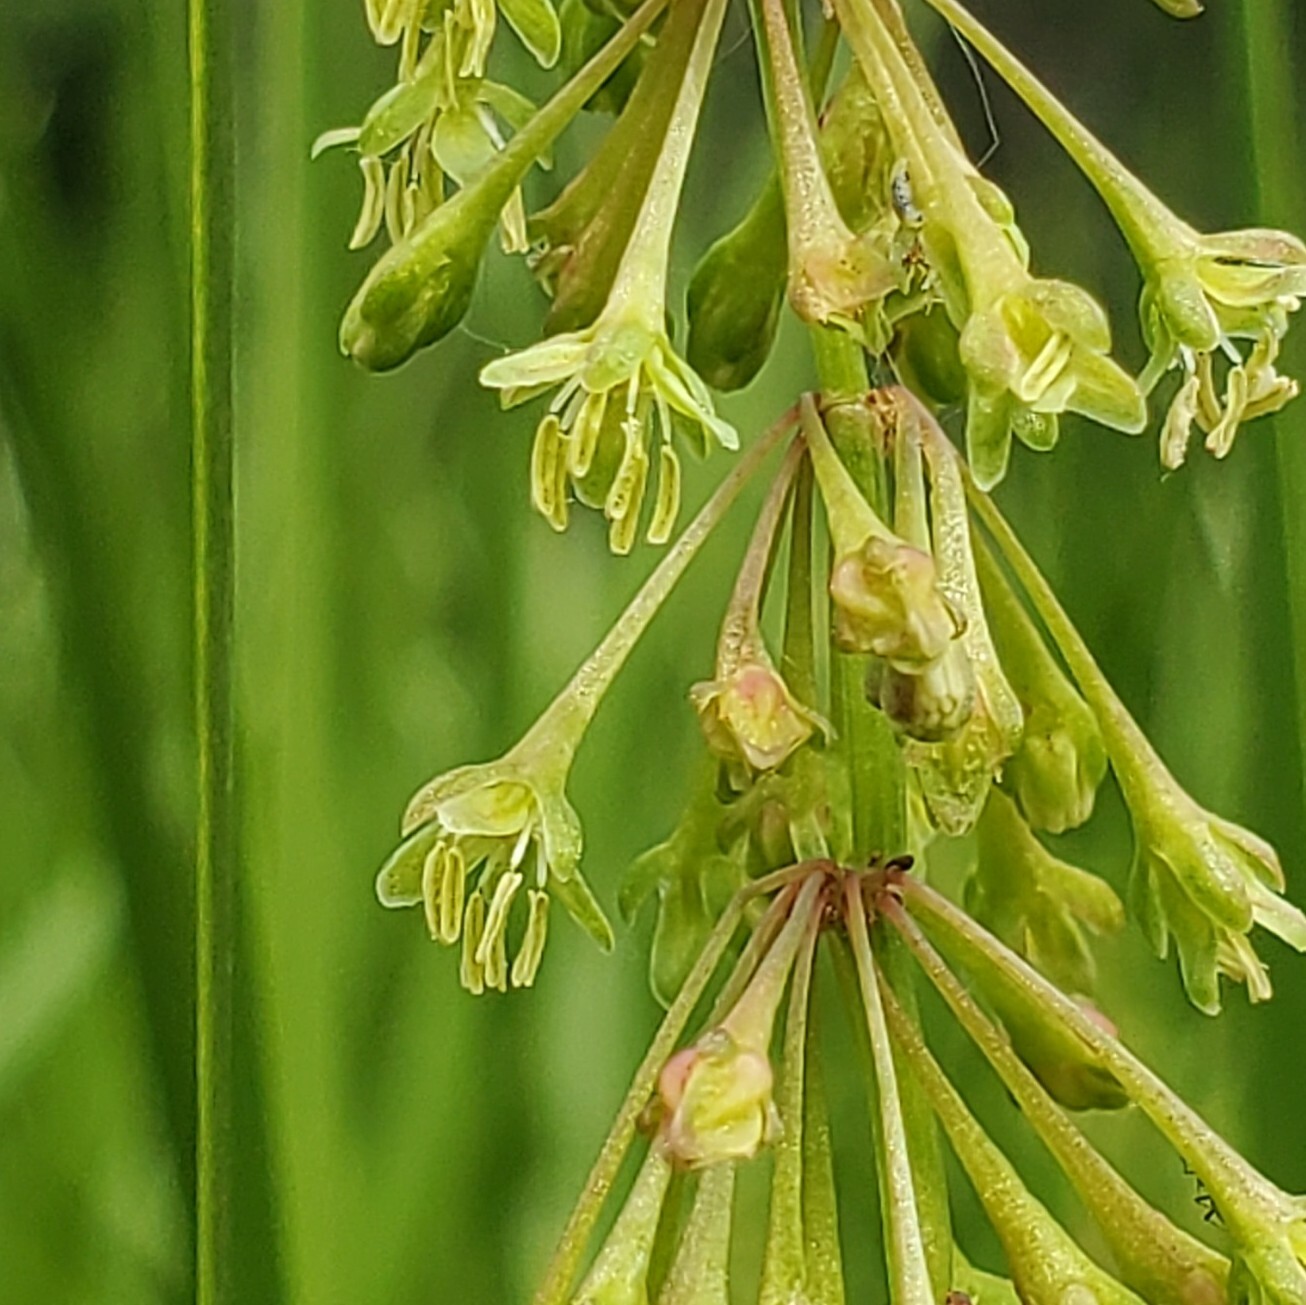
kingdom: Plantae
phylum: Tracheophyta
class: Magnoliopsida
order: Caryophyllales
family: Polygonaceae
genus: Rumex
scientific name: Rumex verticillatus
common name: Swamp dock
